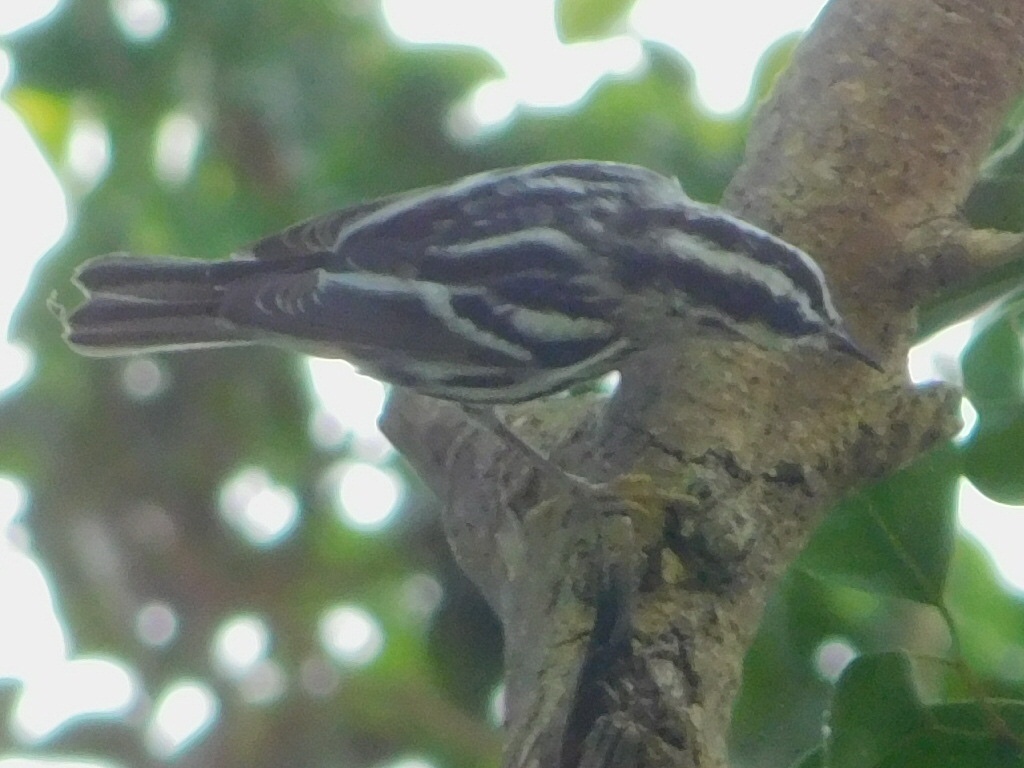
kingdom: Animalia
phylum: Chordata
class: Aves
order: Passeriformes
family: Parulidae
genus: Mniotilta
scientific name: Mniotilta varia
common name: Black-and-white warbler
